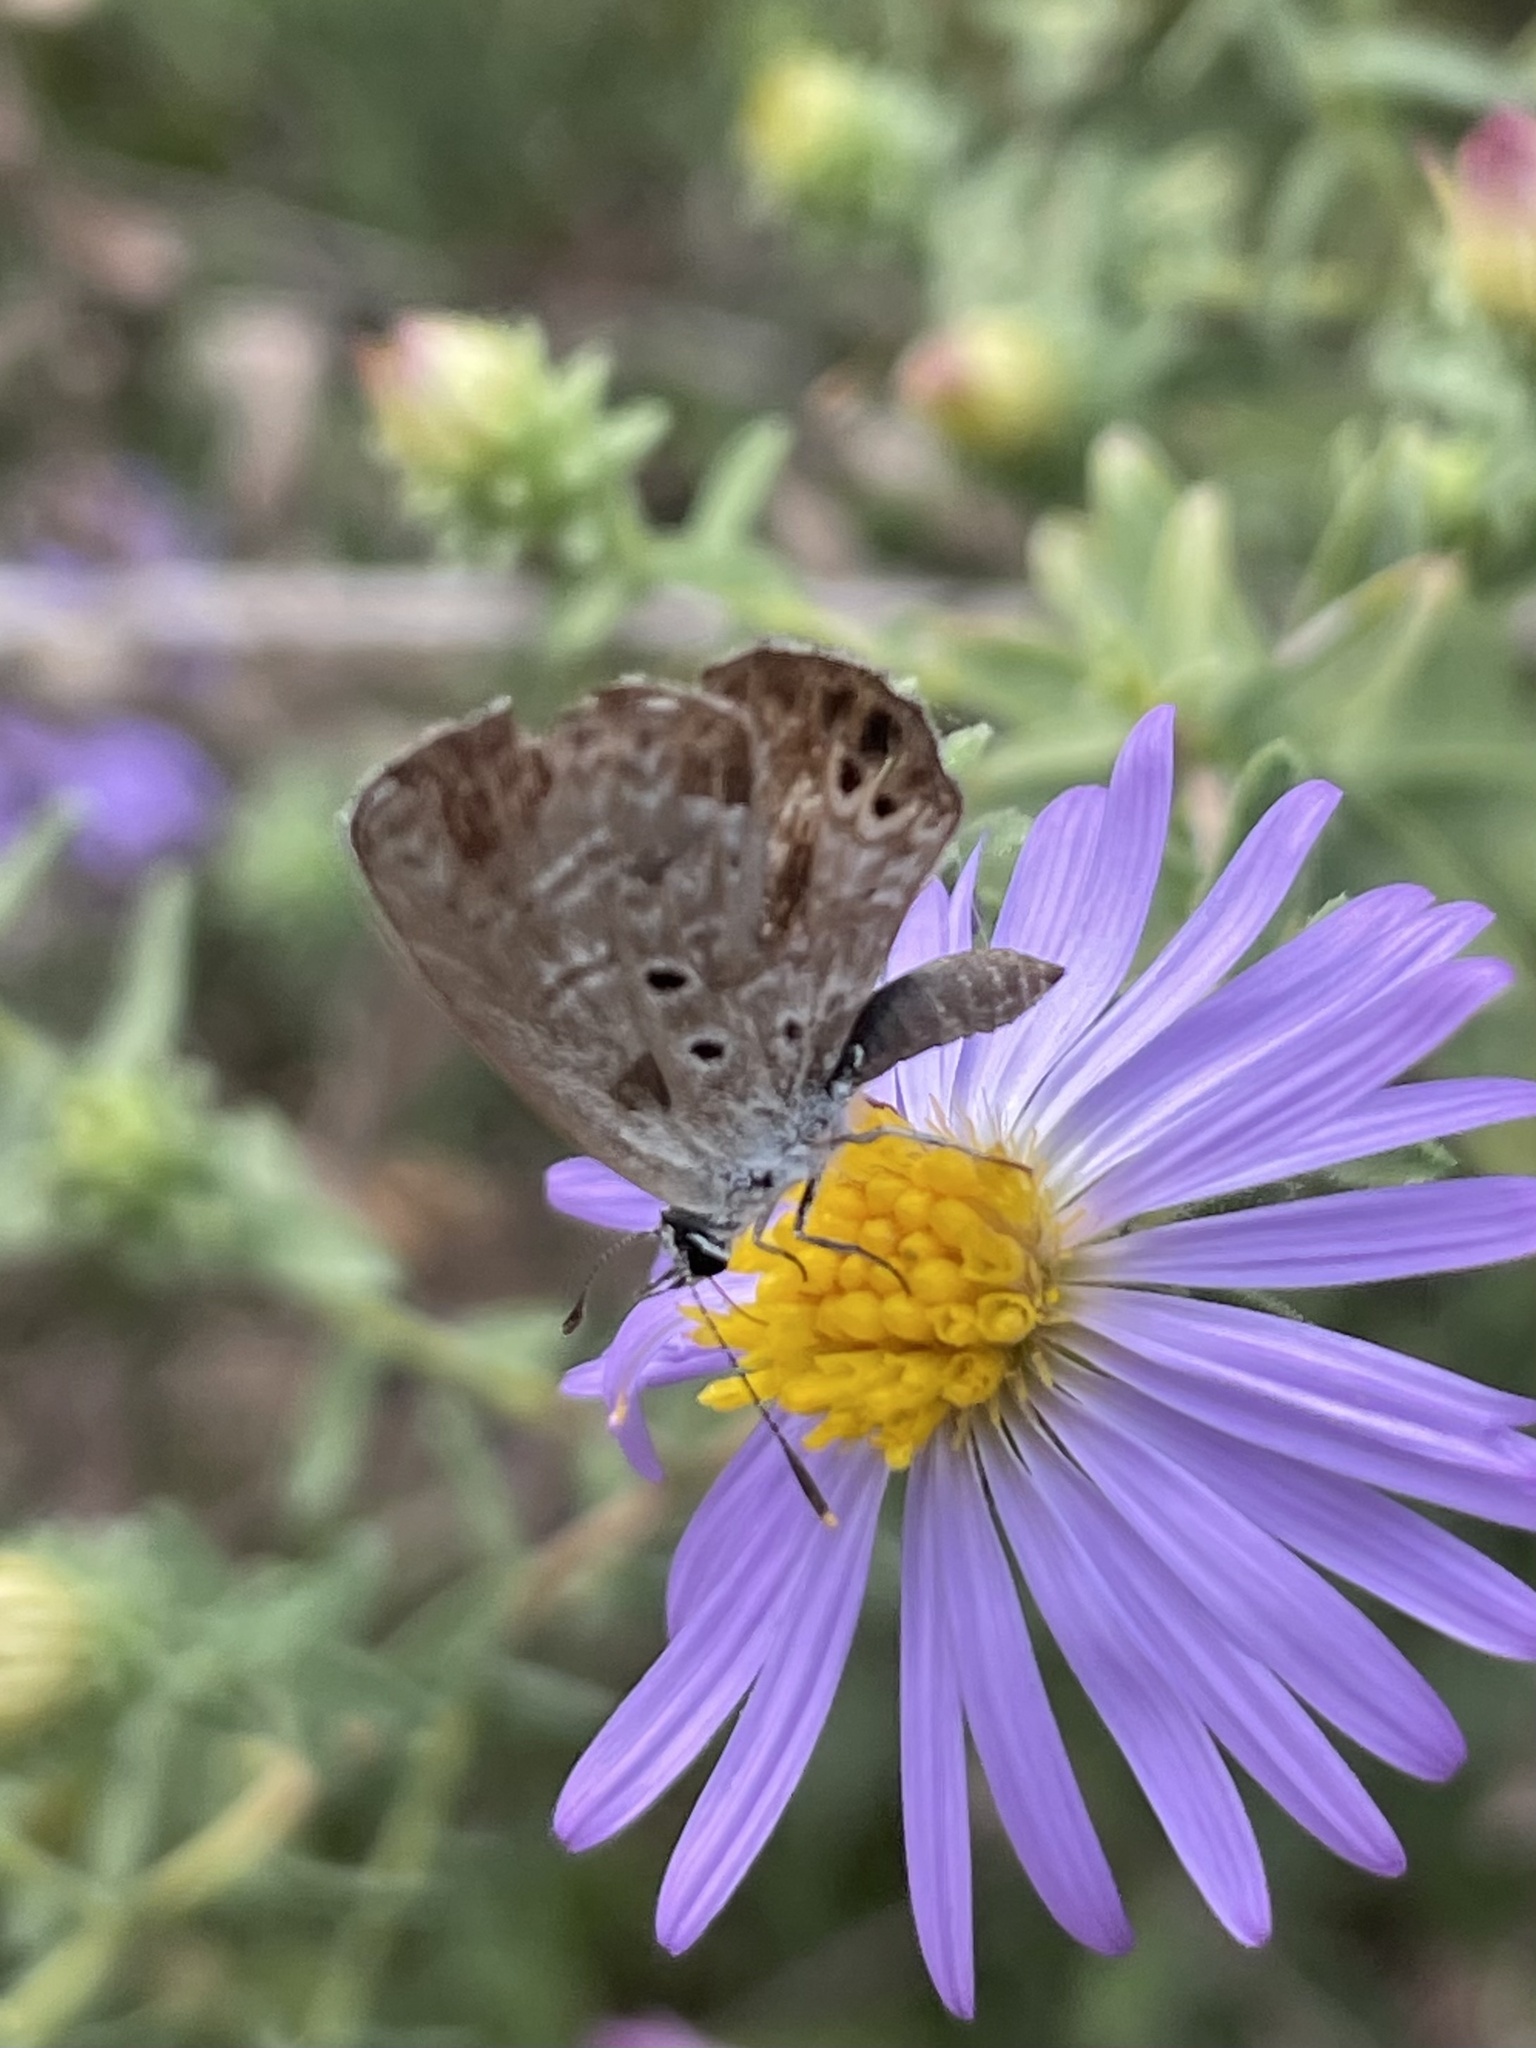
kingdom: Animalia
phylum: Arthropoda
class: Insecta
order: Lepidoptera
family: Lycaenidae
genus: Hemiargus
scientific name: Hemiargus ceraunus
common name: Ceraunus blue
